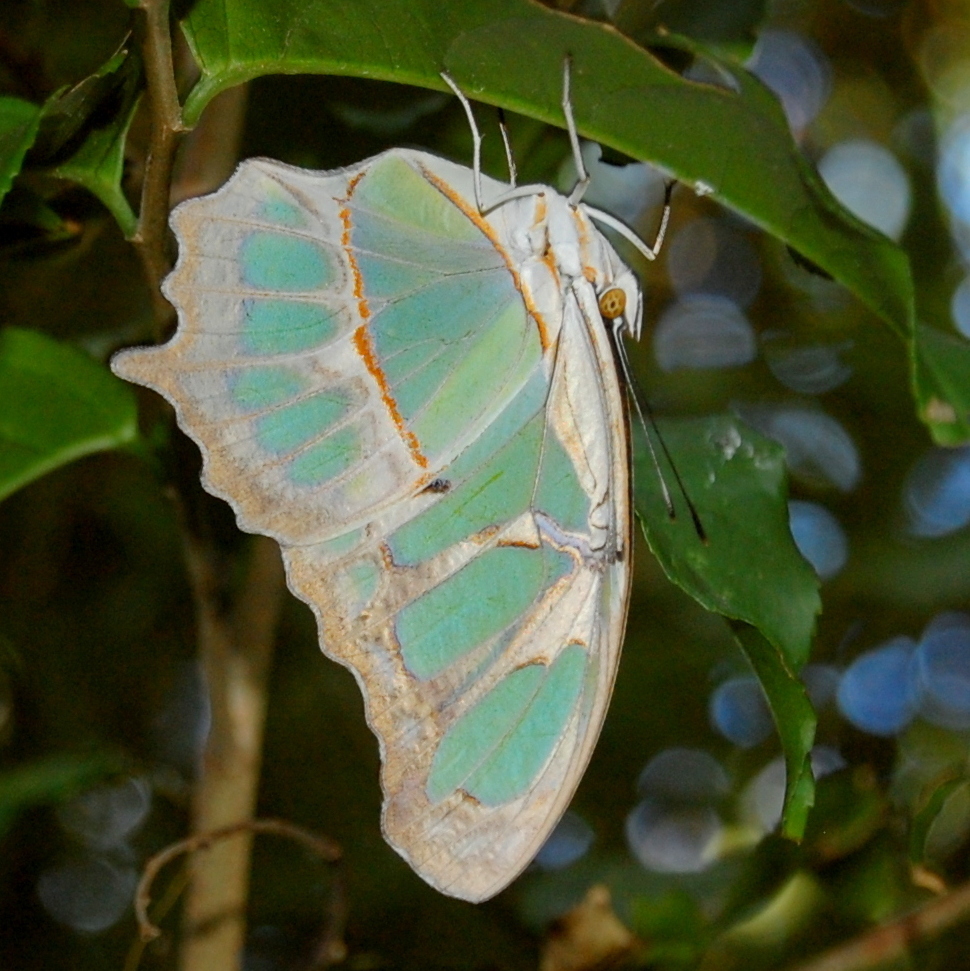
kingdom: Animalia
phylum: Arthropoda
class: Insecta
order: Lepidoptera
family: Nymphalidae
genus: Siproeta
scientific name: Siproeta stelenes
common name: Malachite
